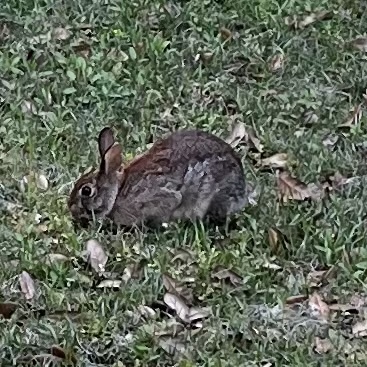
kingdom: Animalia
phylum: Chordata
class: Mammalia
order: Lagomorpha
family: Leporidae
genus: Sylvilagus
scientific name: Sylvilagus floridanus
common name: Eastern cottontail
